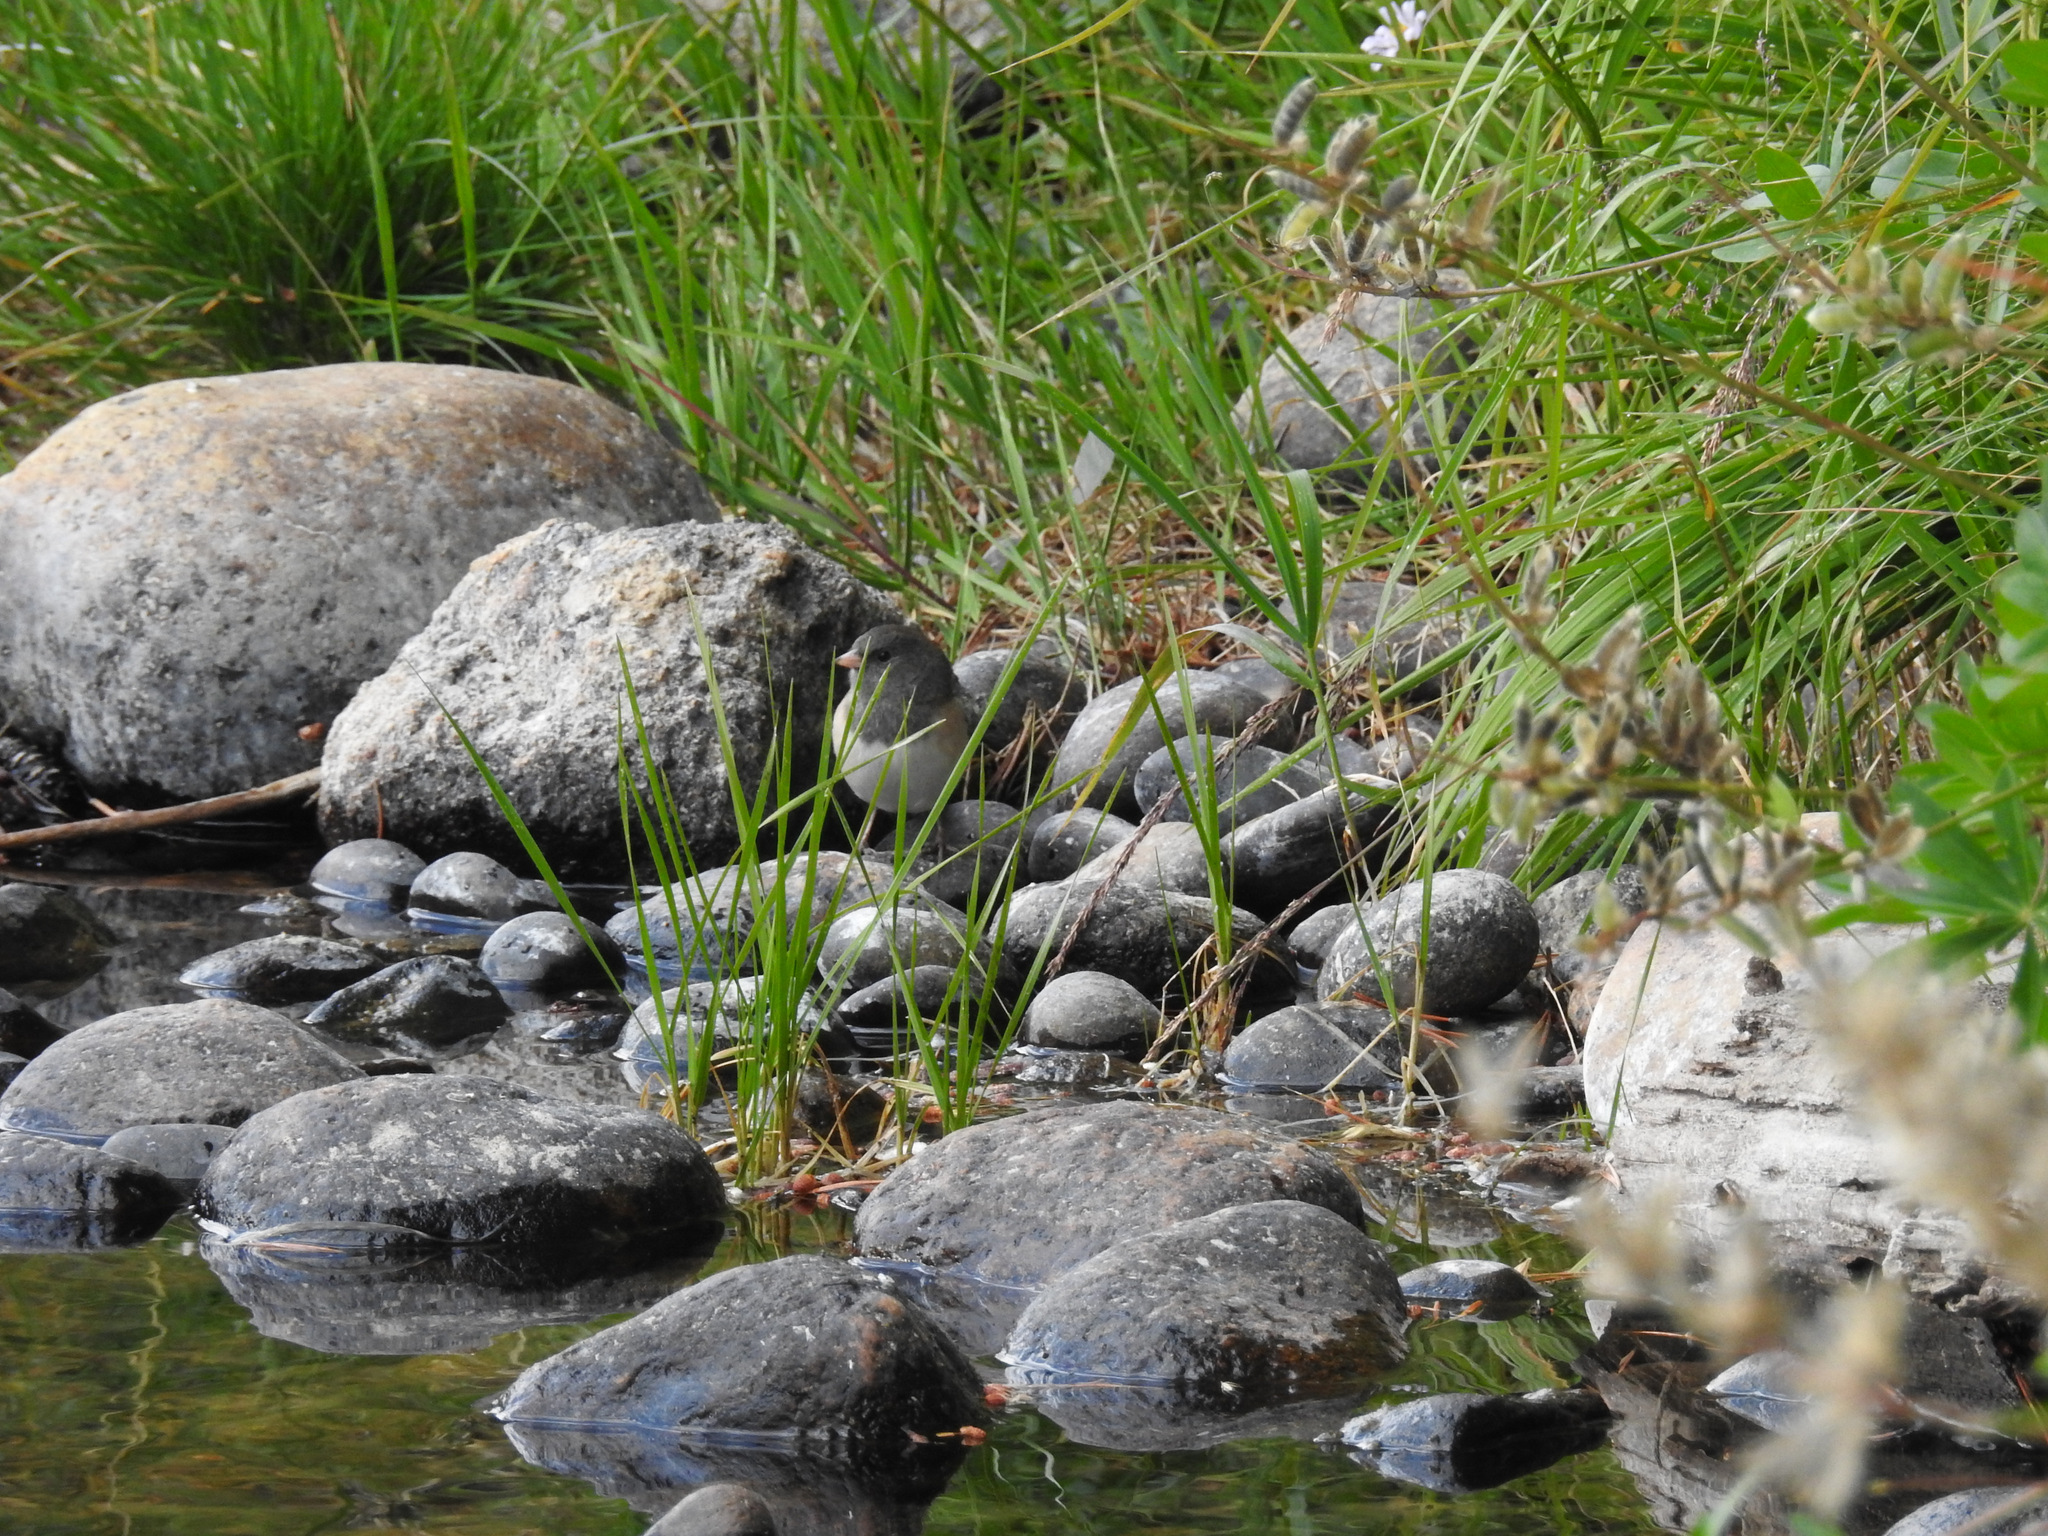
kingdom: Animalia
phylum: Chordata
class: Aves
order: Passeriformes
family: Passerellidae
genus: Junco
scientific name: Junco hyemalis
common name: Dark-eyed junco
